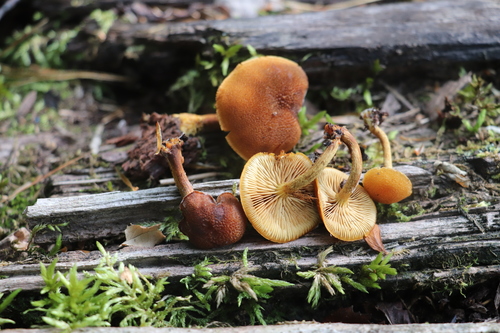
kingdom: Fungi
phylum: Basidiomycota
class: Agaricomycetes
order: Agaricales
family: Tubariaceae
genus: Flammulaster
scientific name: Flammulaster limulatus
